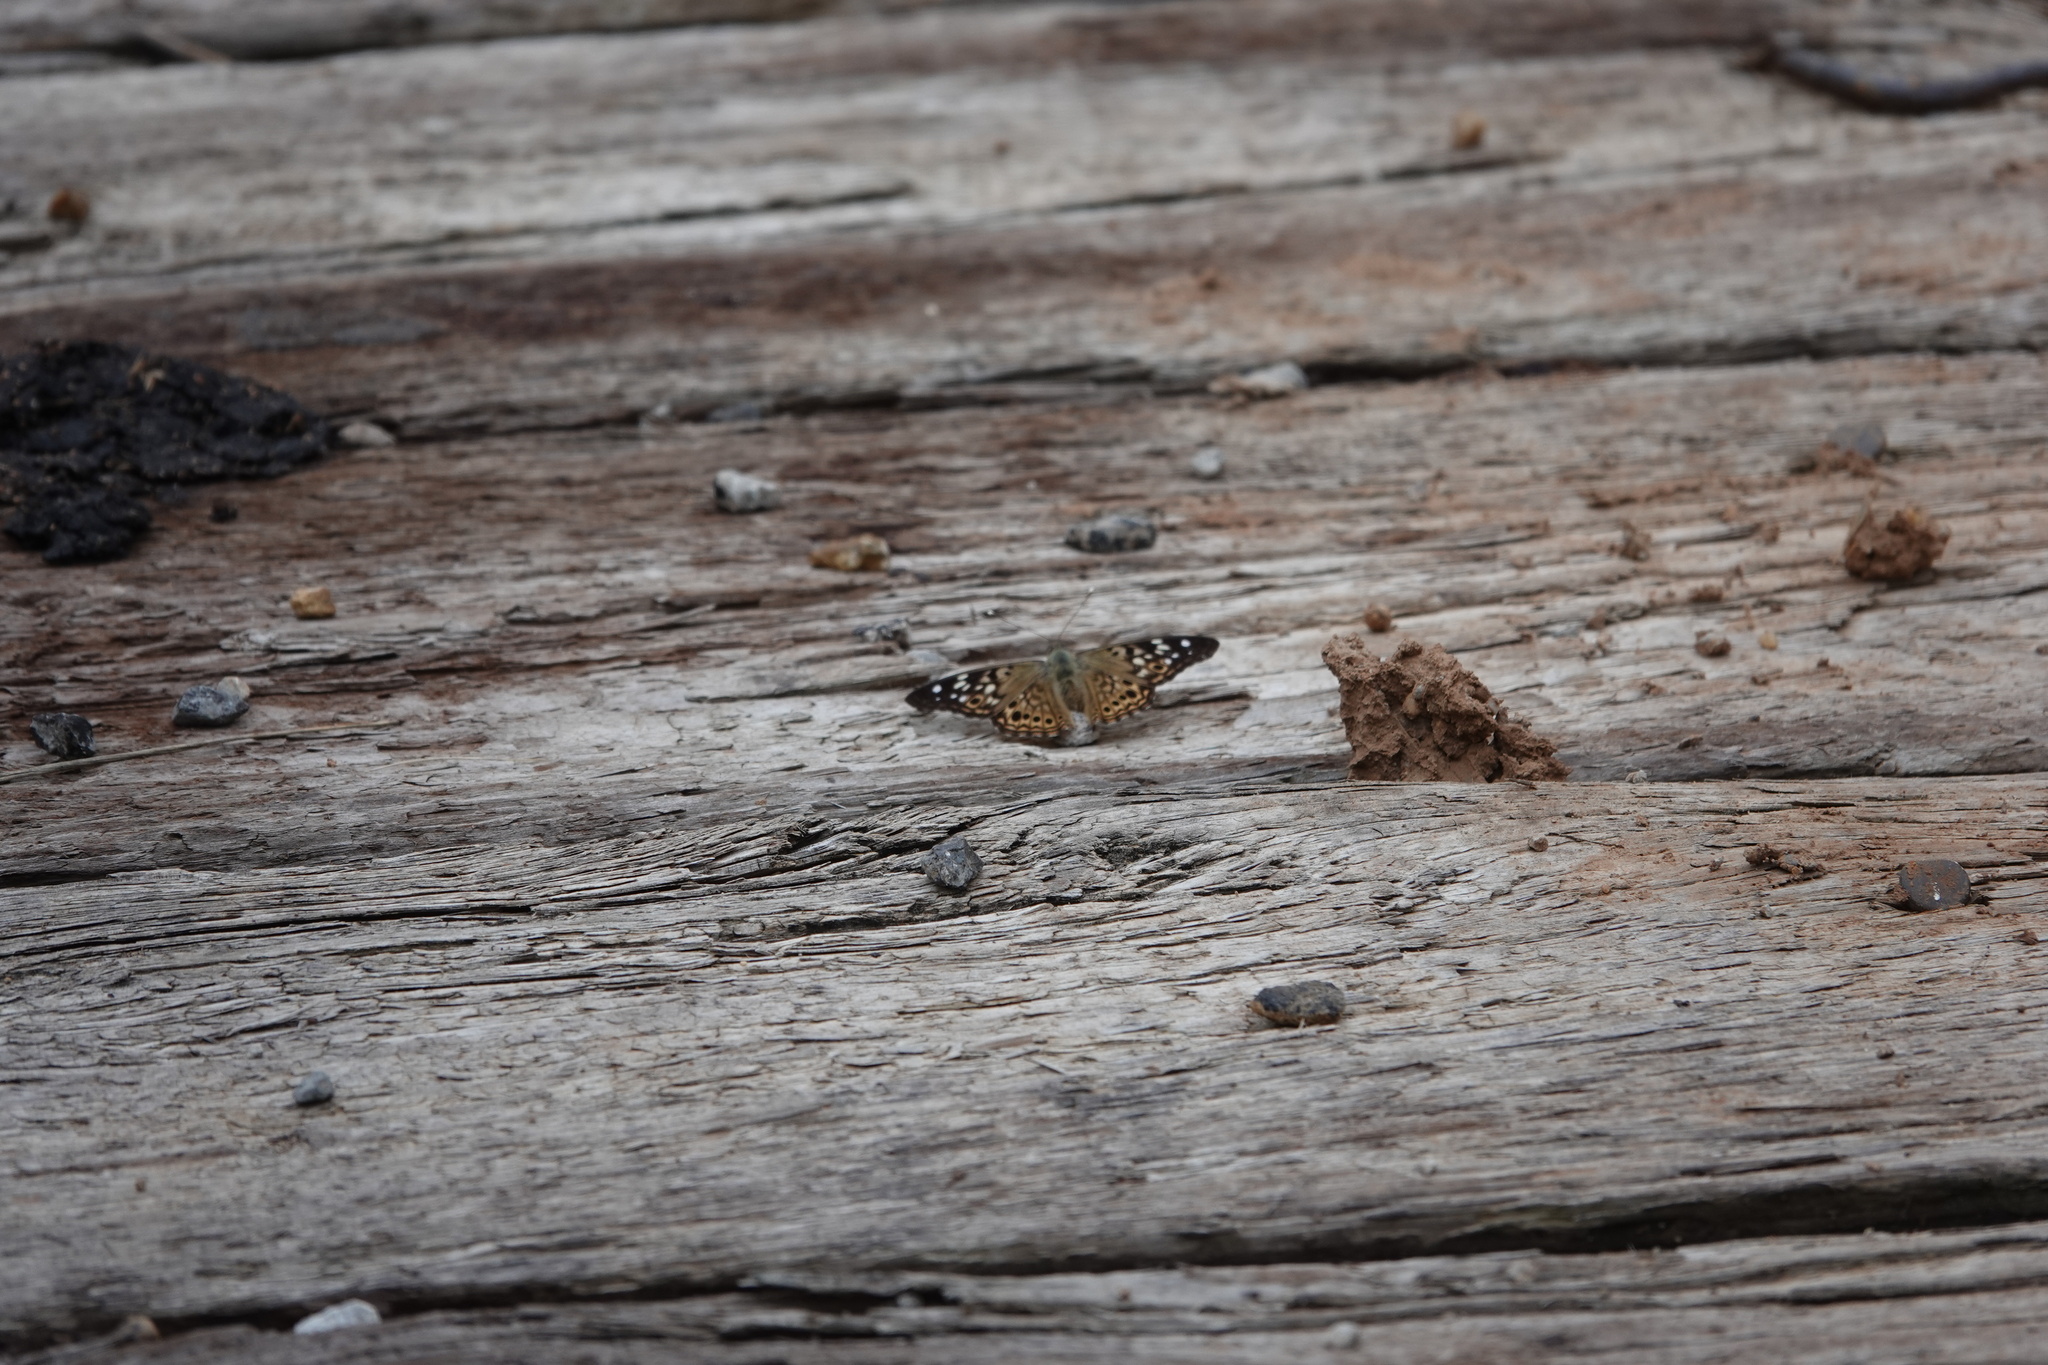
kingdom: Animalia
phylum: Arthropoda
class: Insecta
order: Lepidoptera
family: Nymphalidae
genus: Asterocampa
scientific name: Asterocampa celtis
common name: Hackberry emperor
